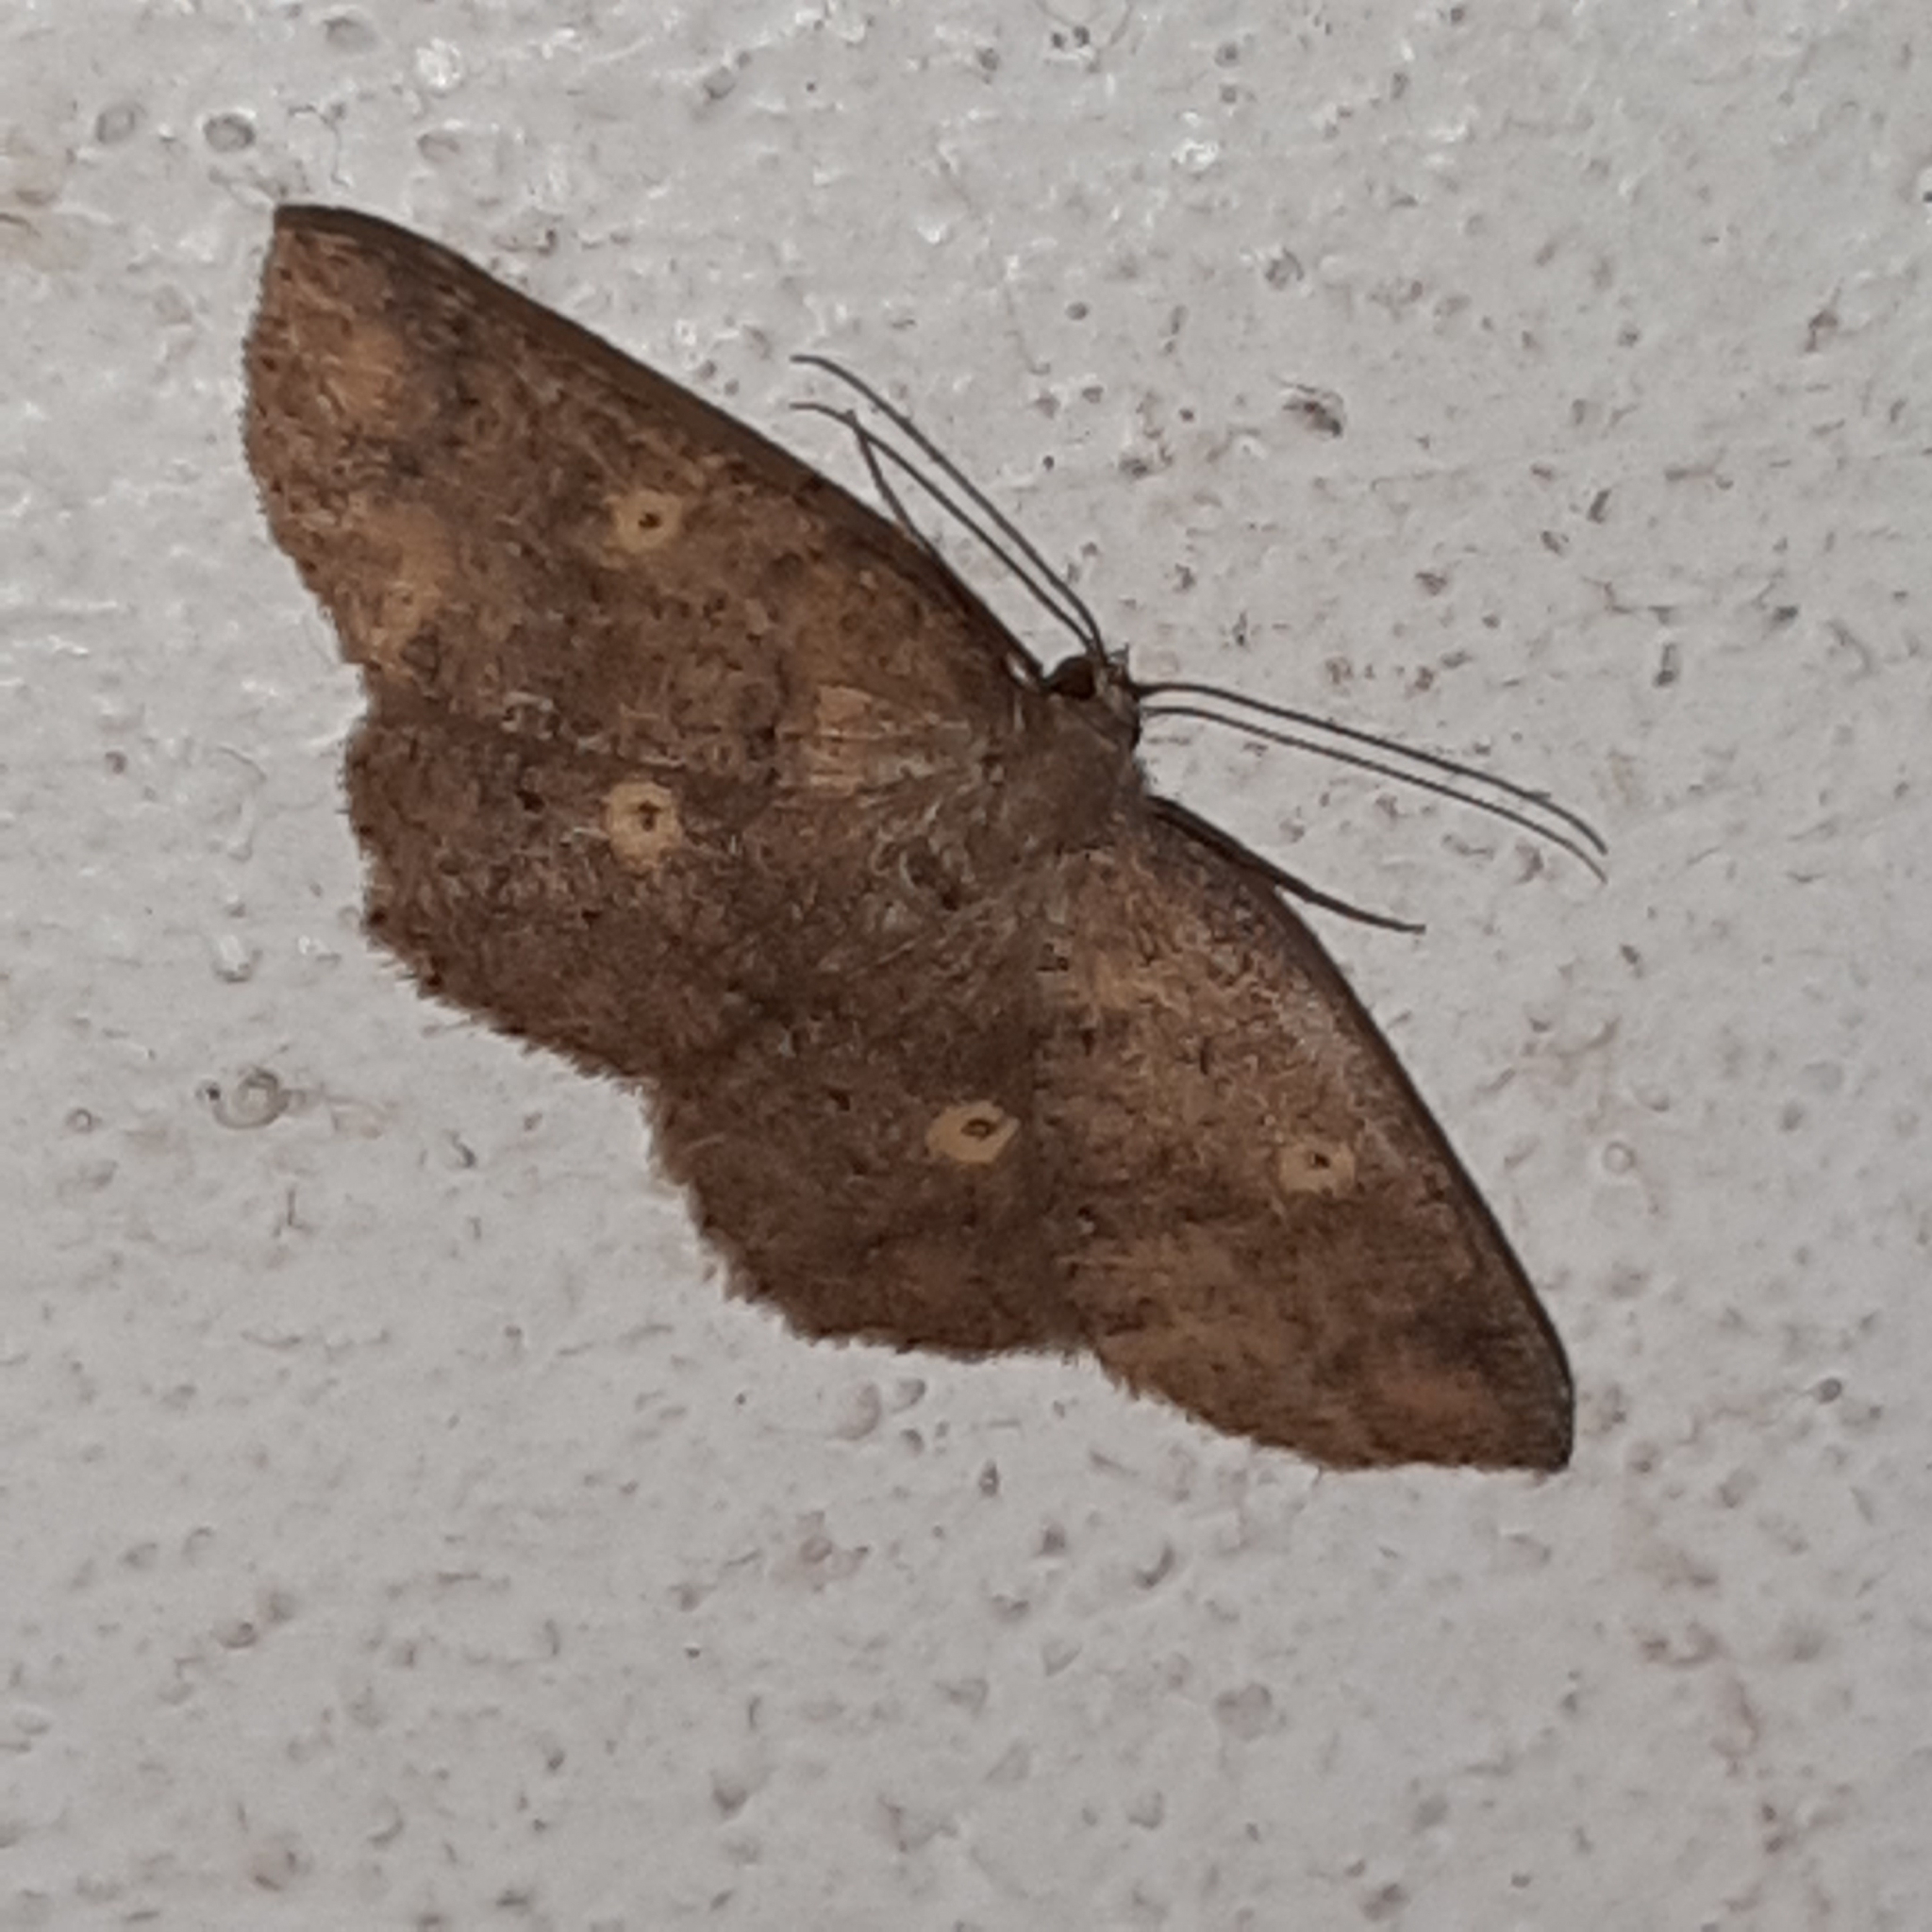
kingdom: Animalia
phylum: Arthropoda
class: Insecta
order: Lepidoptera
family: Geometridae
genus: Semaeopus
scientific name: Semaeopus illimitata
